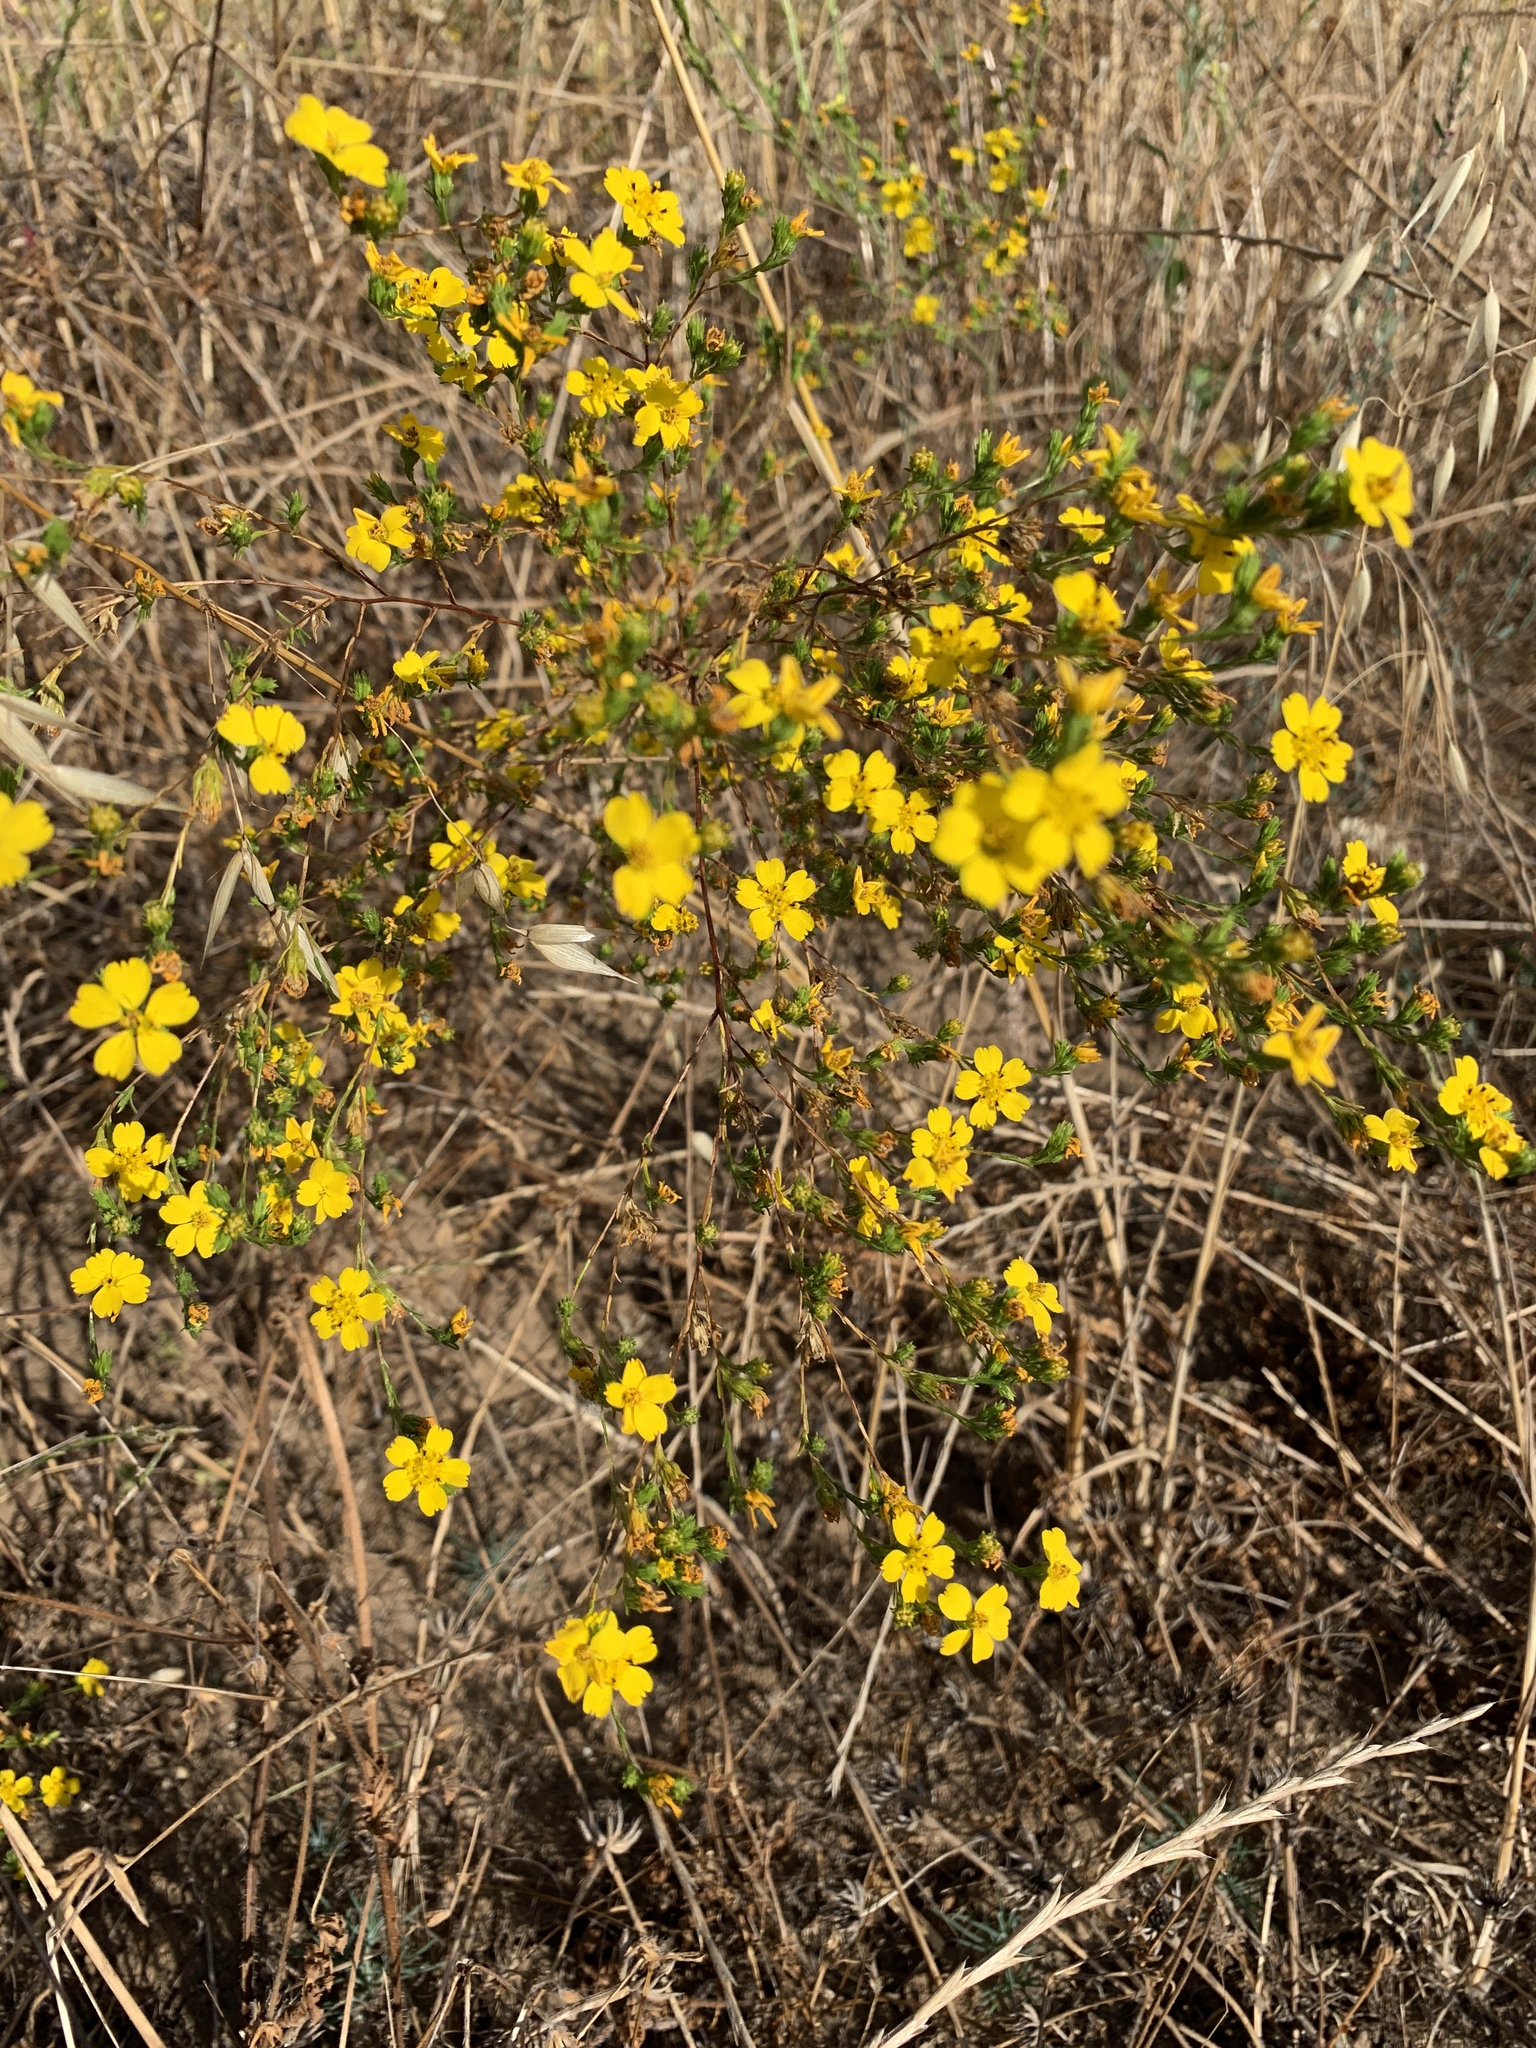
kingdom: Plantae
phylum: Tracheophyta
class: Magnoliopsida
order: Asterales
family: Asteraceae
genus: Deinandra
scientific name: Deinandra fasciculata
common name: Clustered tarweed
